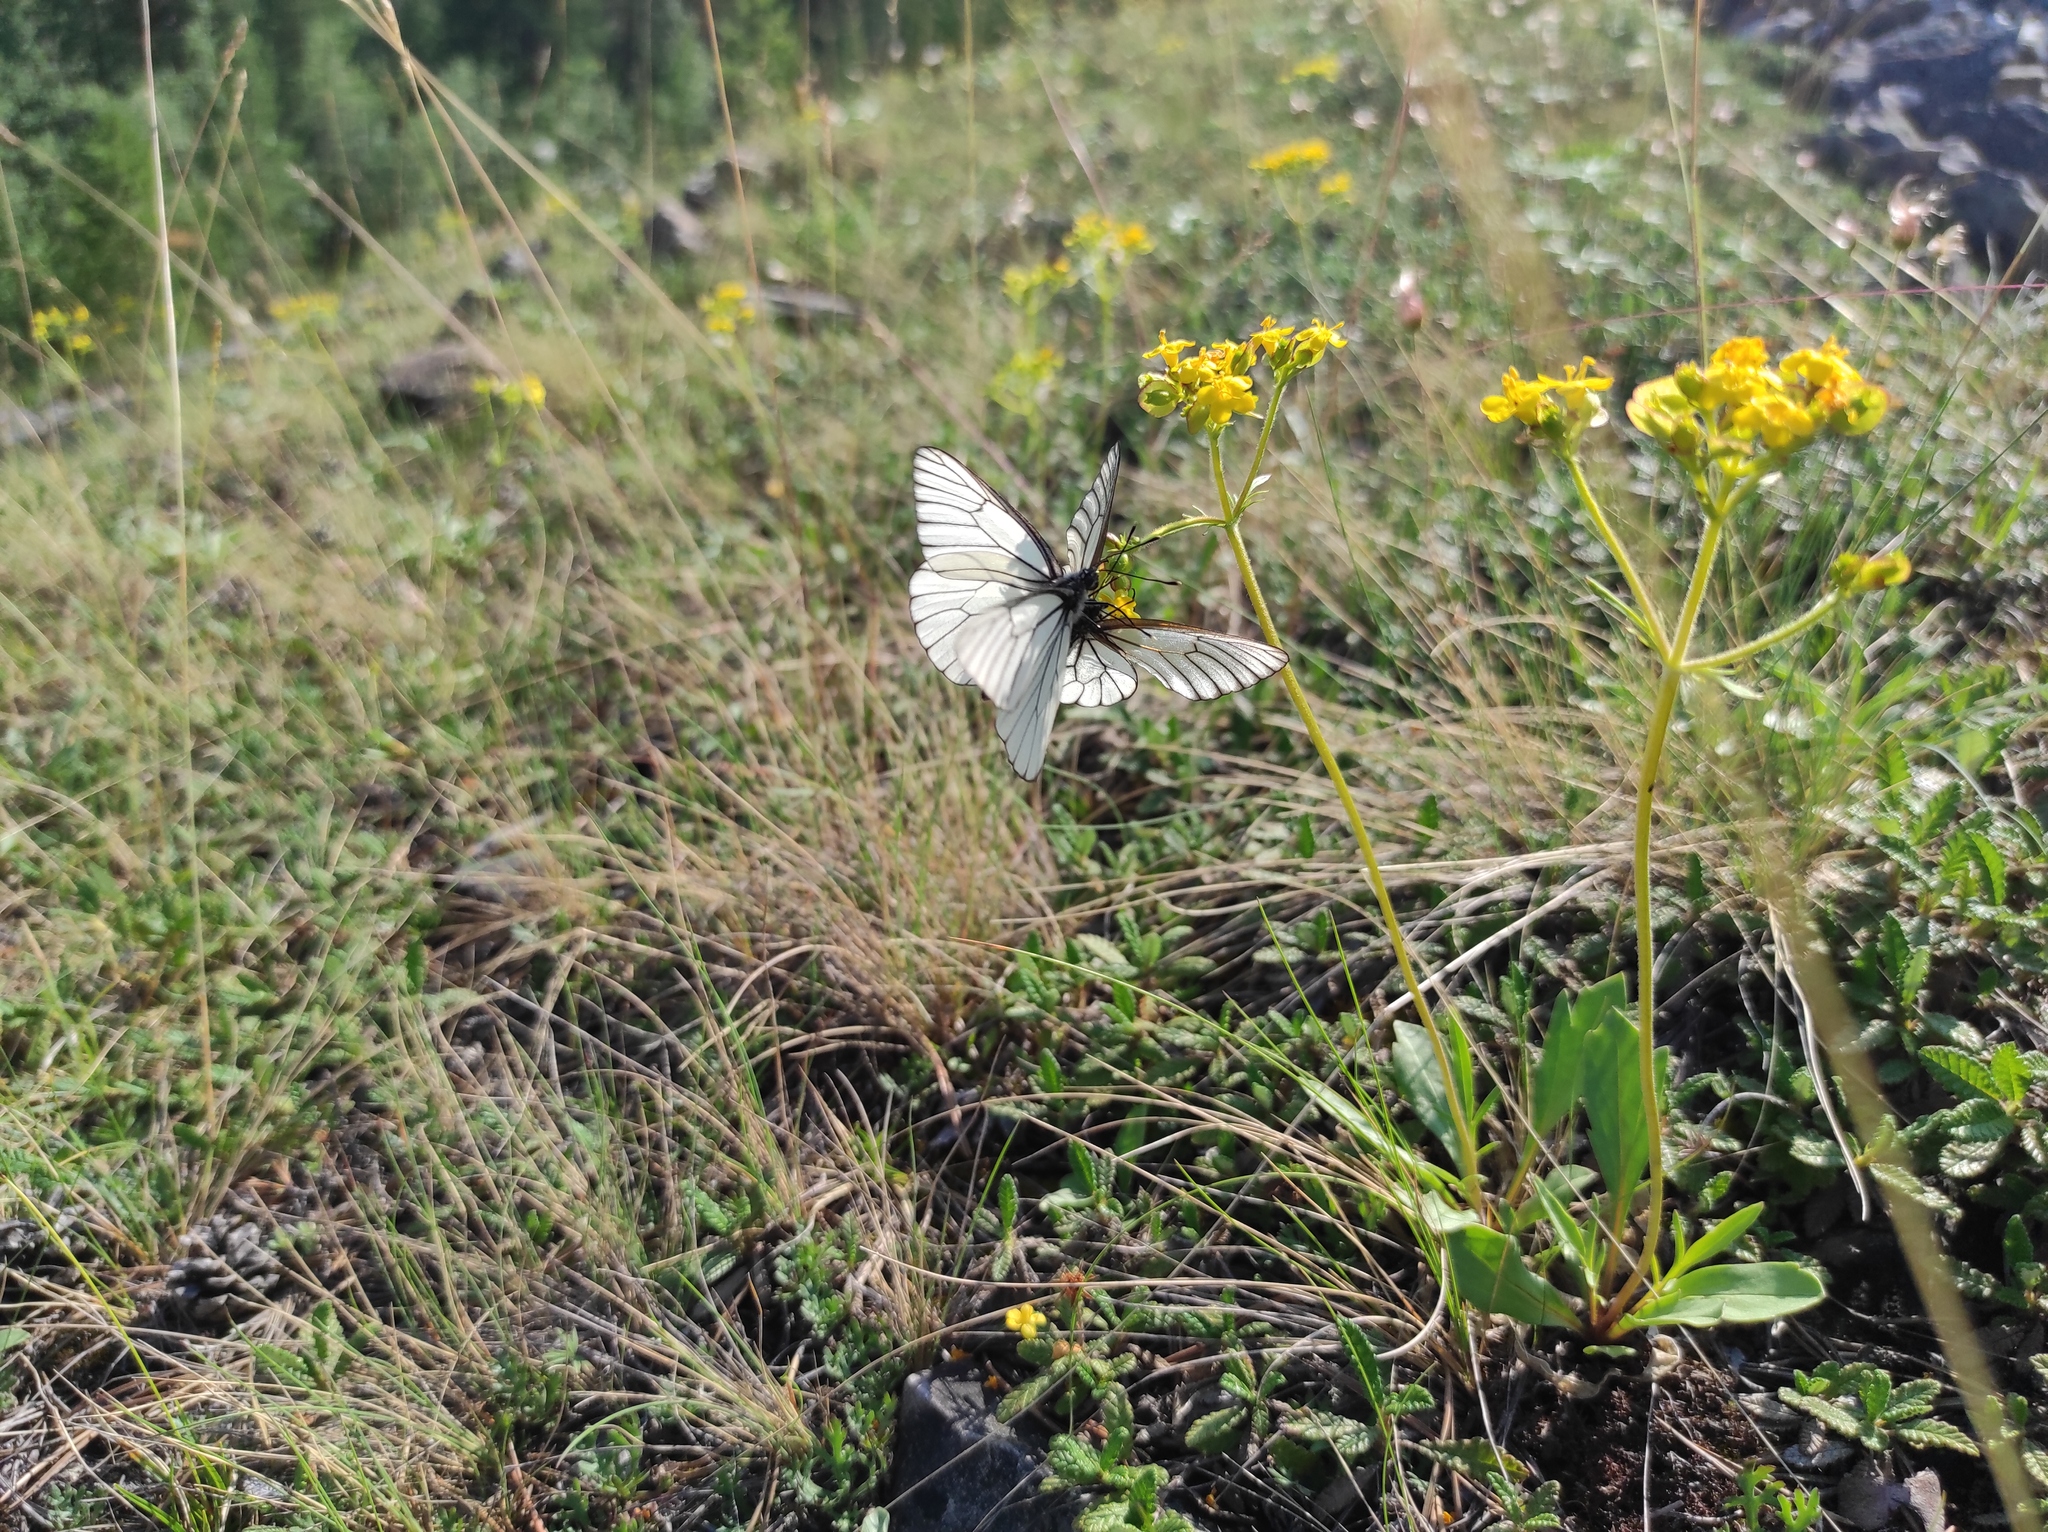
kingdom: Plantae
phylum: Tracheophyta
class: Magnoliopsida
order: Dipsacales
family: Caprifoliaceae
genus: Patrinia
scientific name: Patrinia sibirica
